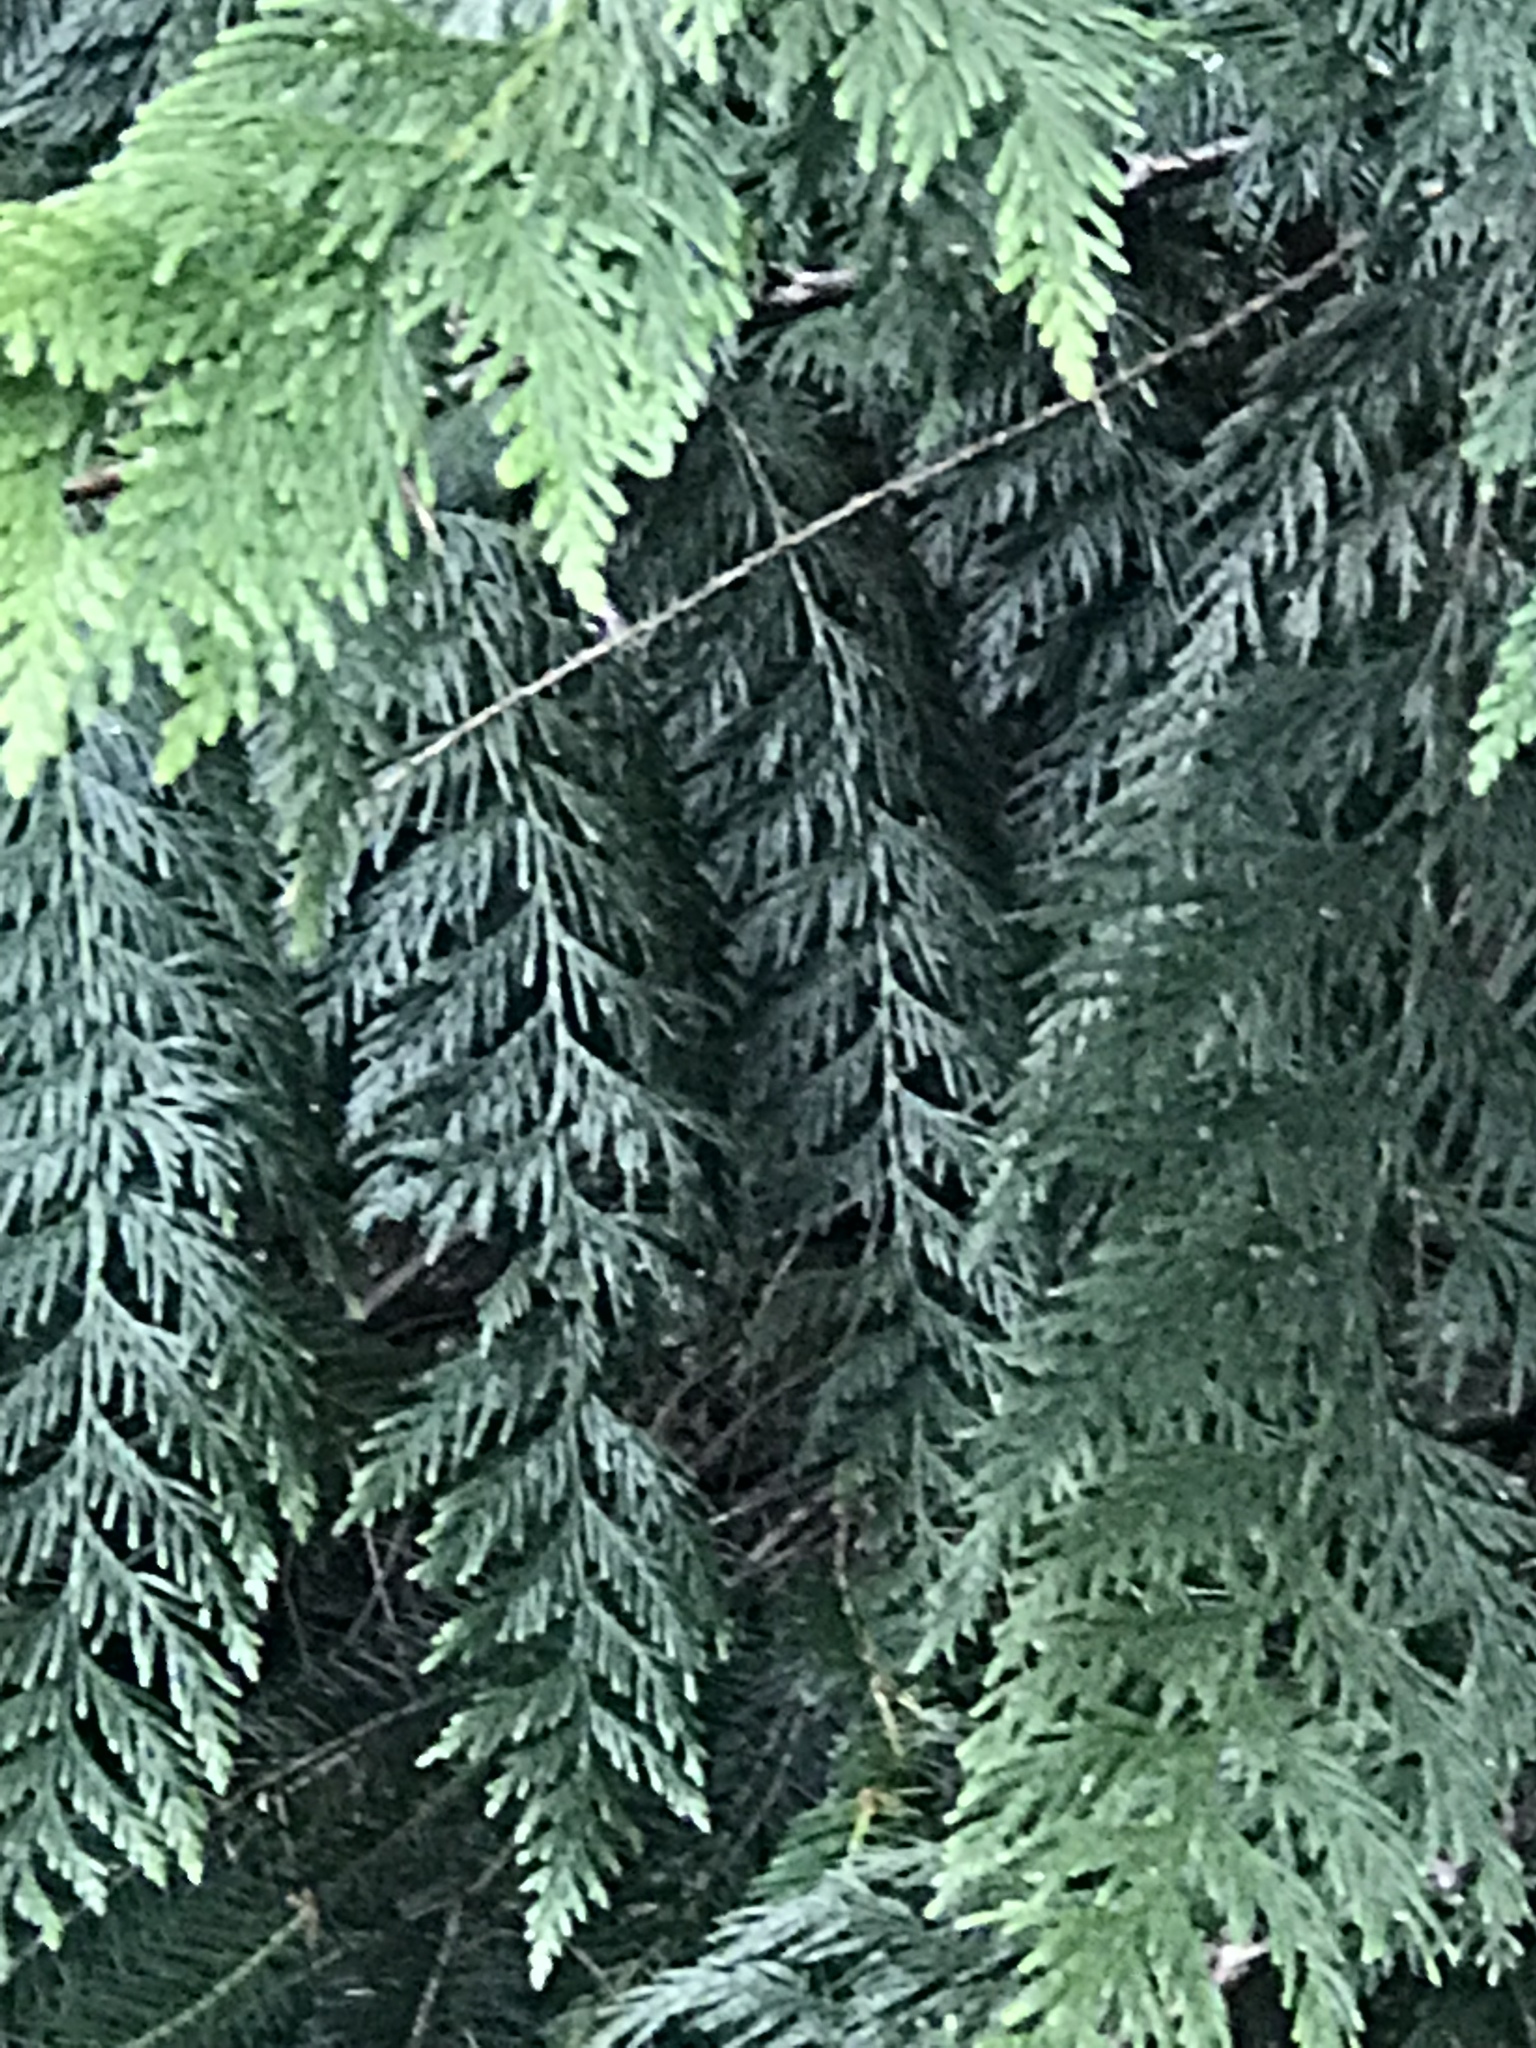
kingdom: Plantae
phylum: Tracheophyta
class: Pinopsida
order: Pinales
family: Cupressaceae
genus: Thuja
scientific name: Thuja plicata
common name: Western red-cedar
